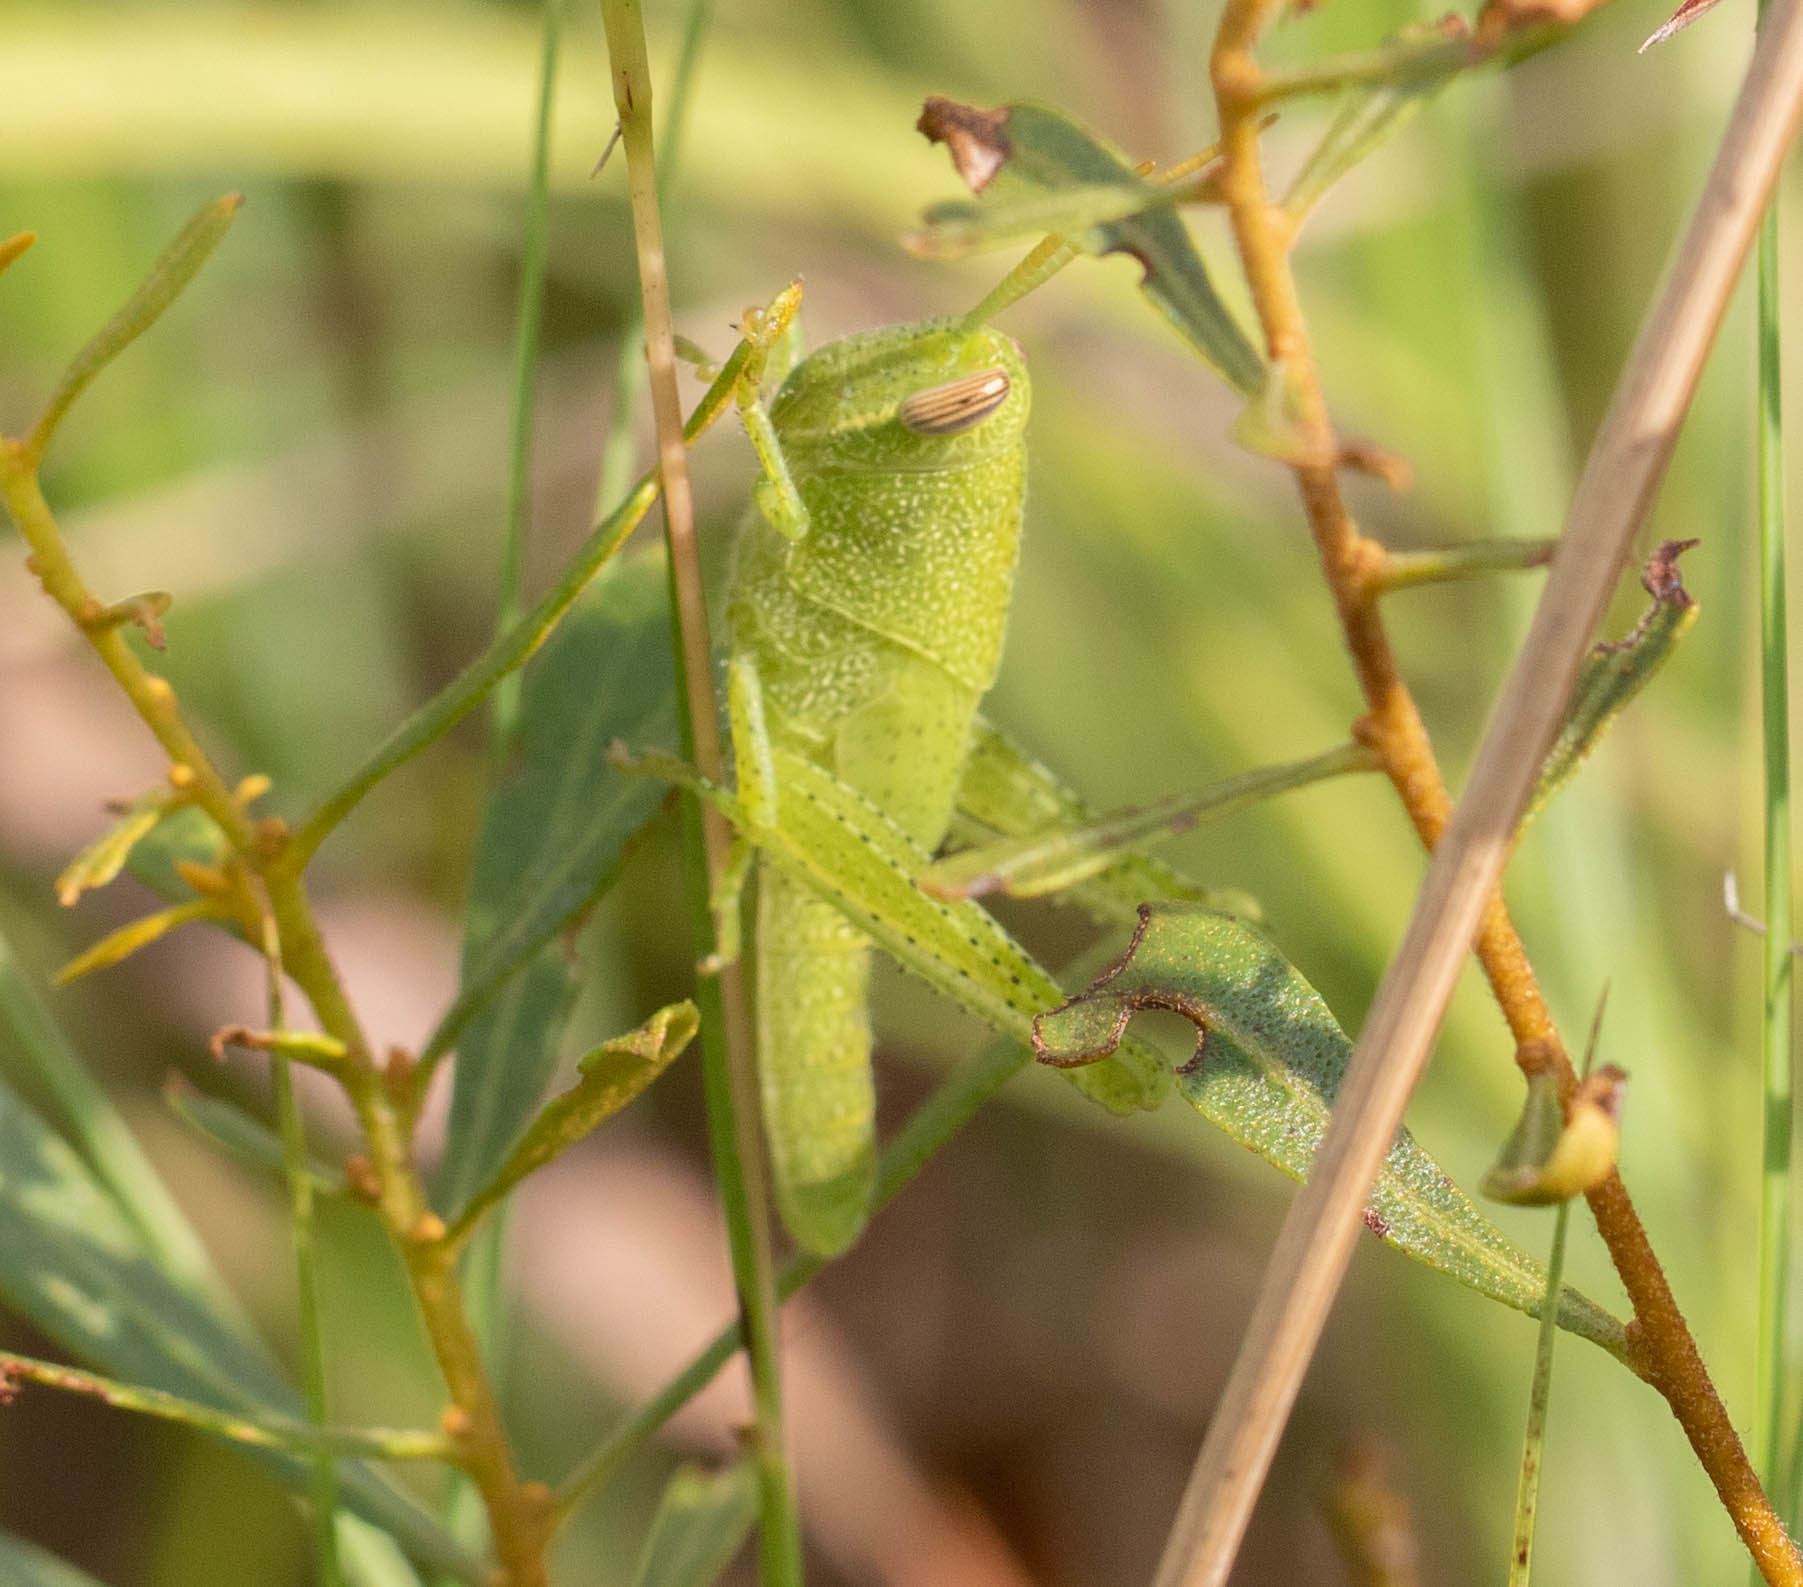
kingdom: Animalia
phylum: Arthropoda
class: Insecta
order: Orthoptera
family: Acrididae
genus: Schistocerca
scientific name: Schistocerca damnifica
